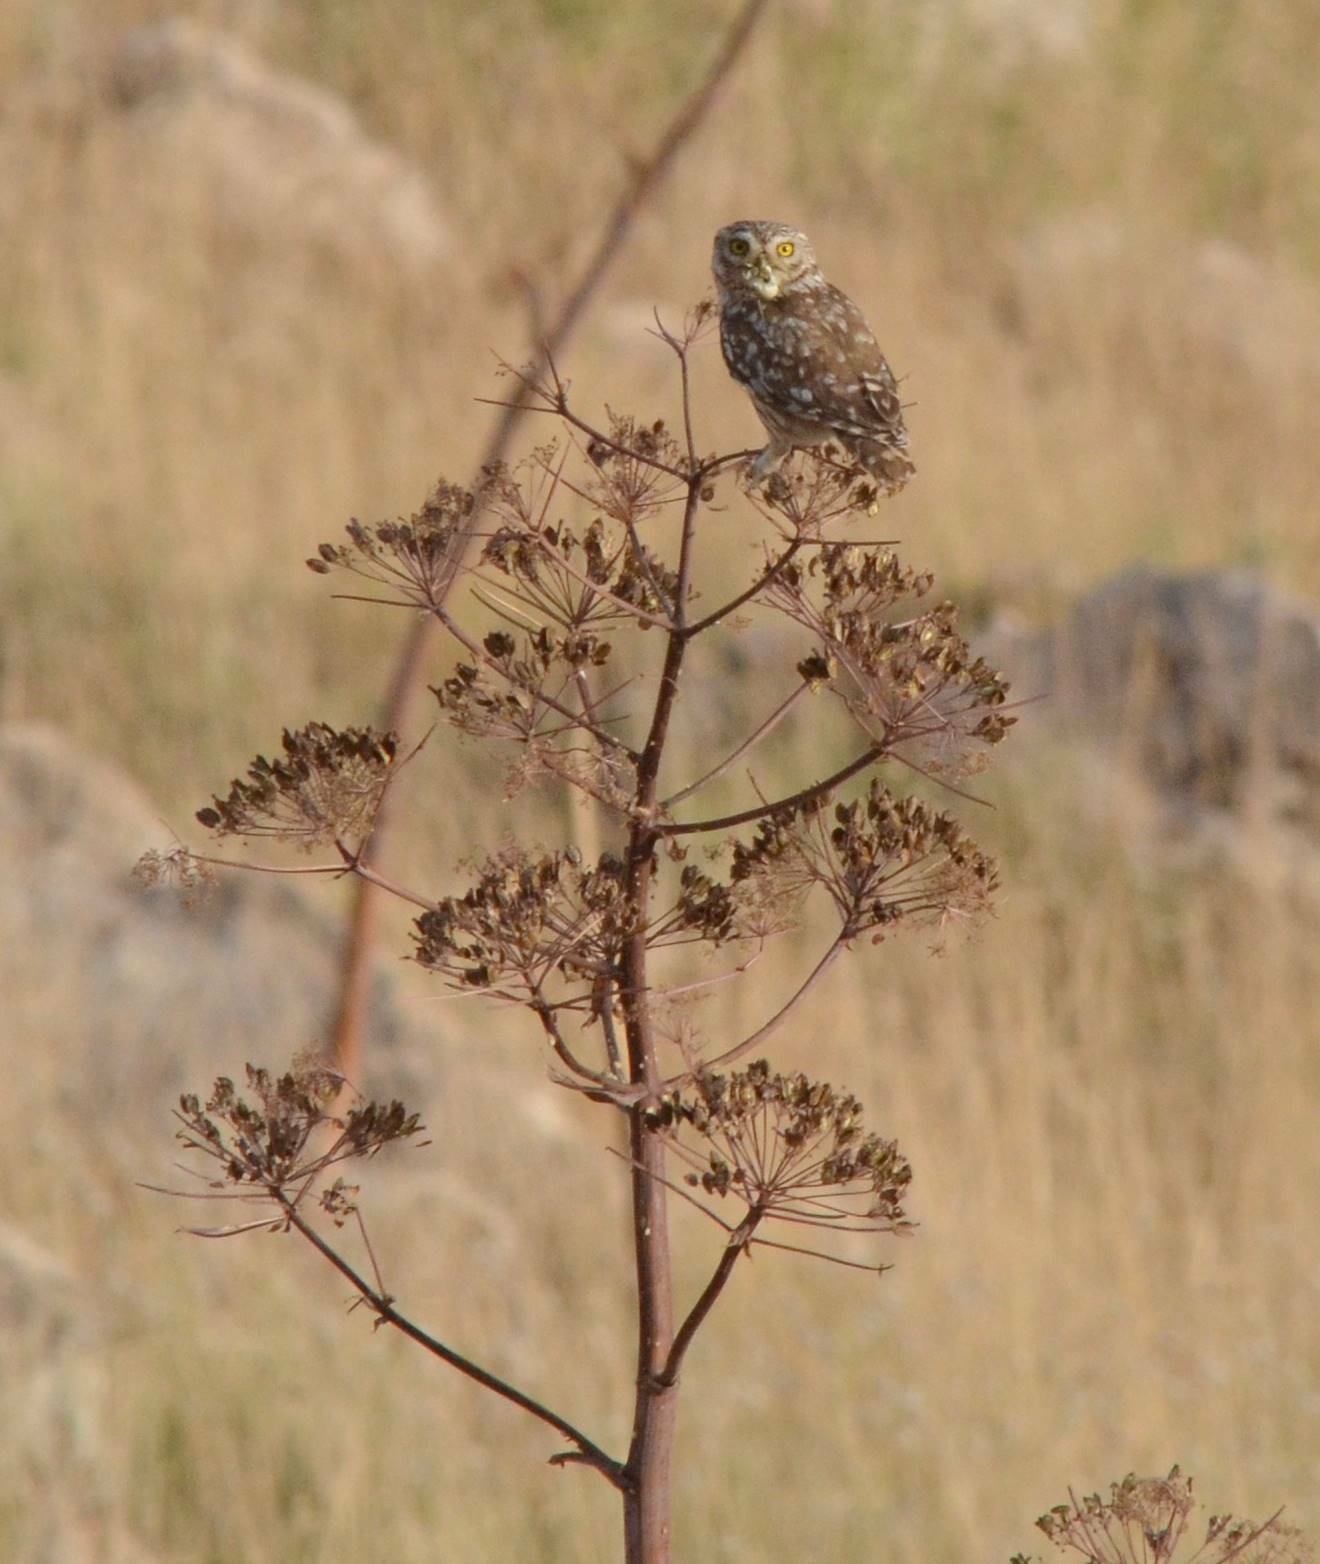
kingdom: Animalia
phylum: Chordata
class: Aves
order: Strigiformes
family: Strigidae
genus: Athene
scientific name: Athene noctua
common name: Little owl
